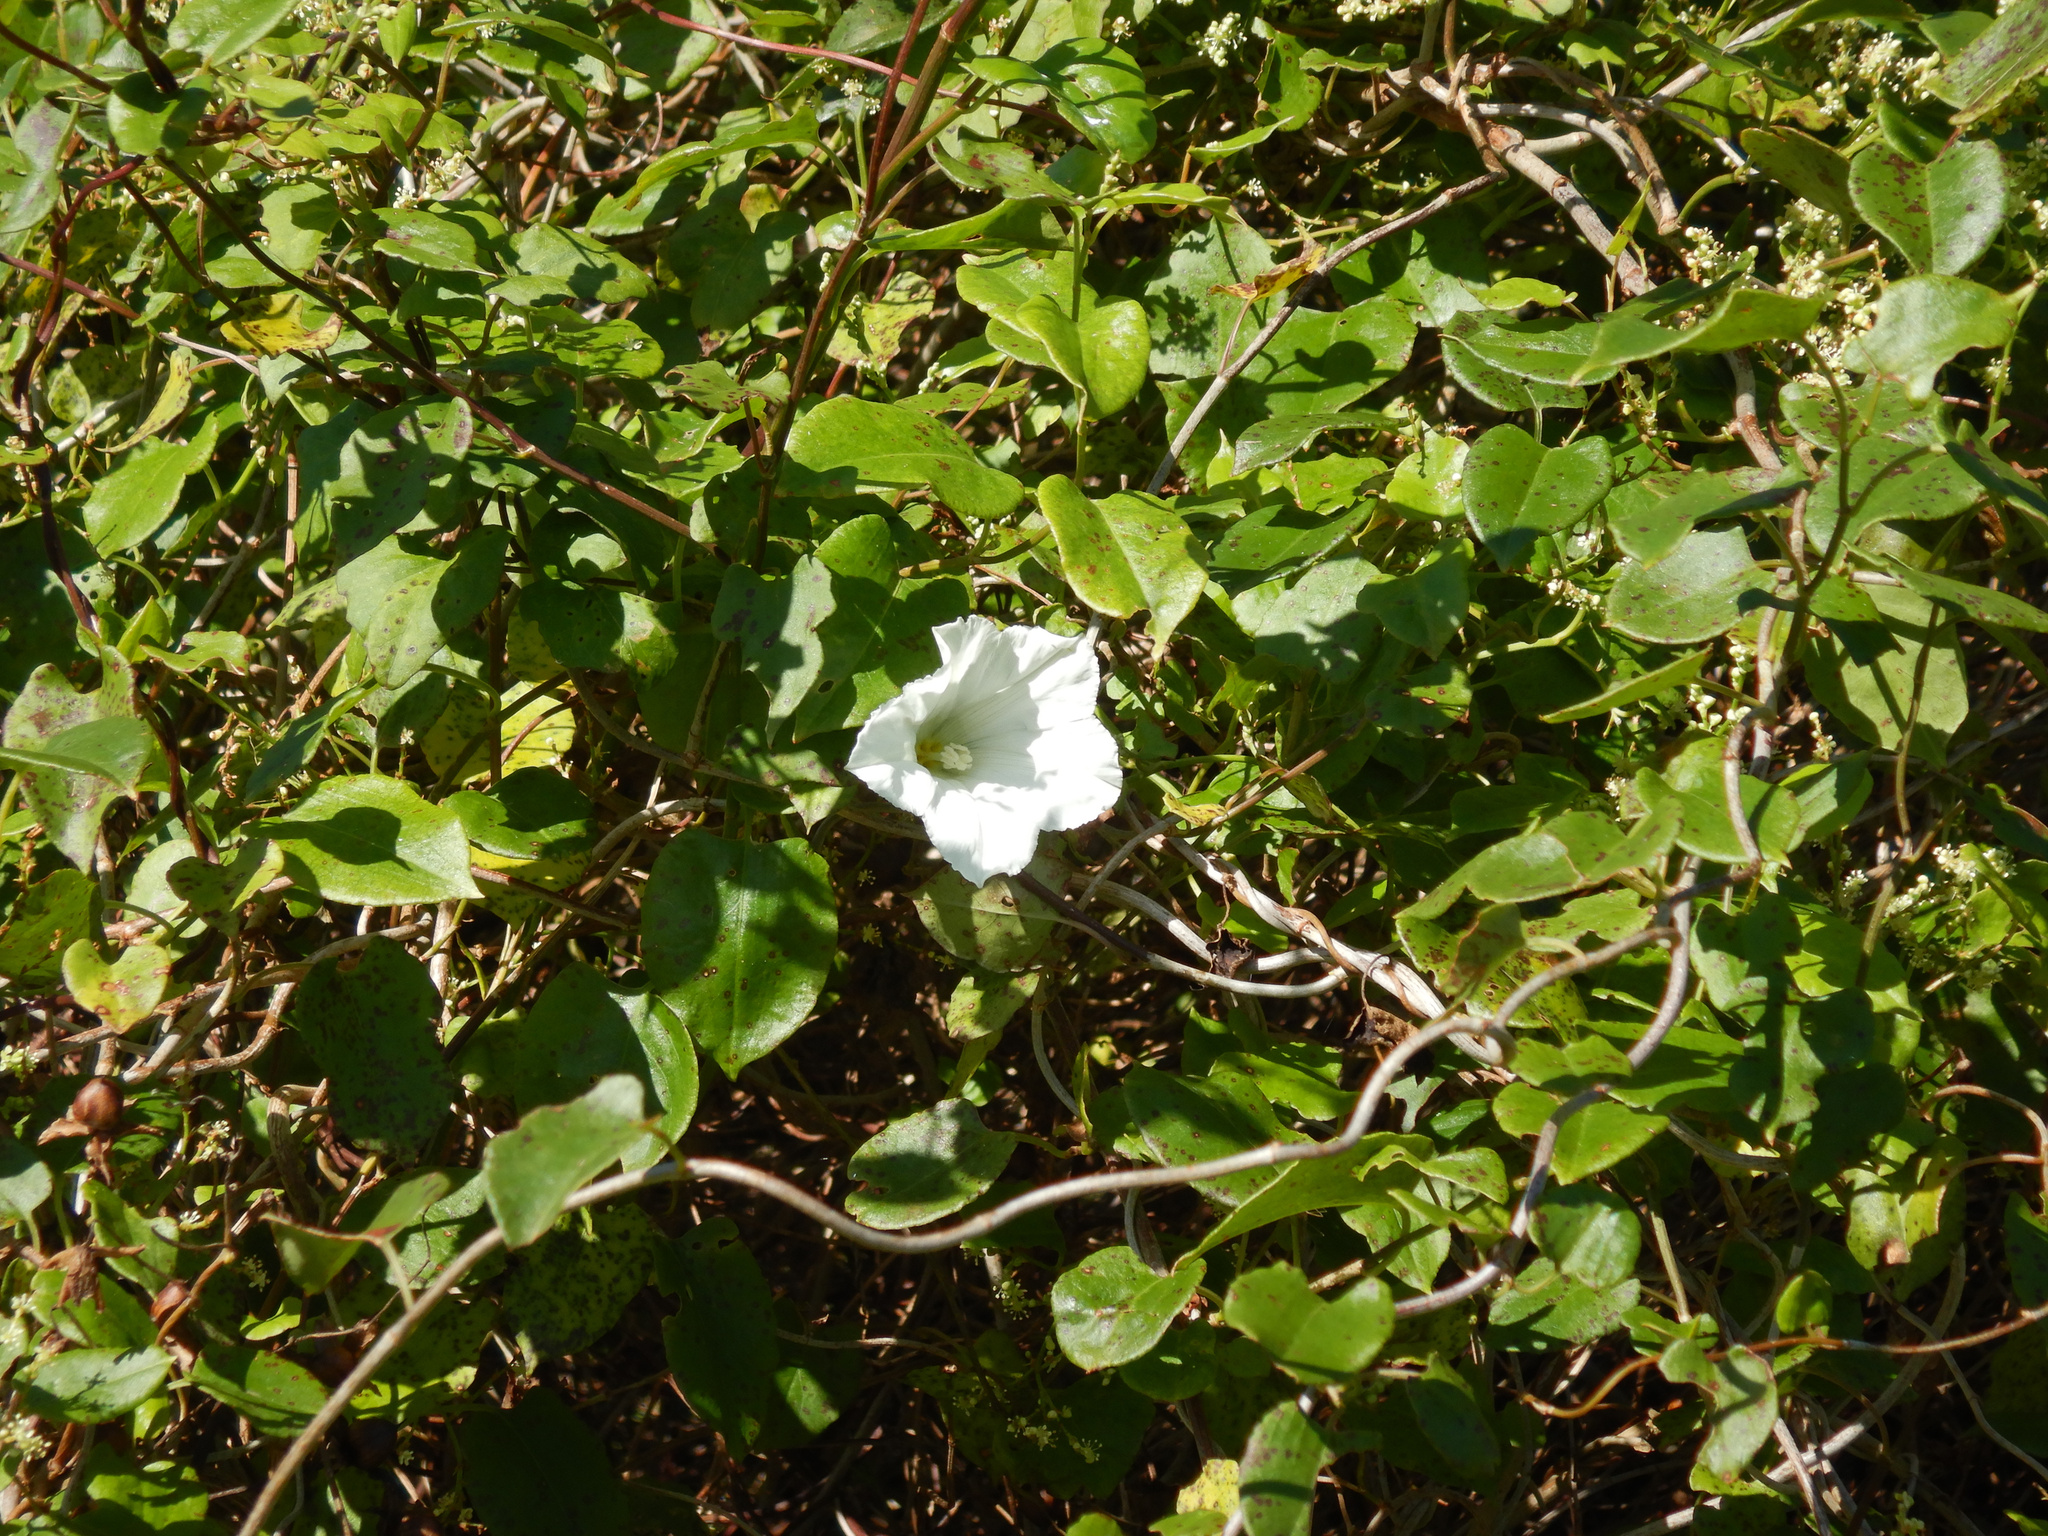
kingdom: Plantae
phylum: Tracheophyta
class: Magnoliopsida
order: Solanales
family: Convolvulaceae
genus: Calystegia
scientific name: Calystegia tuguriorum
